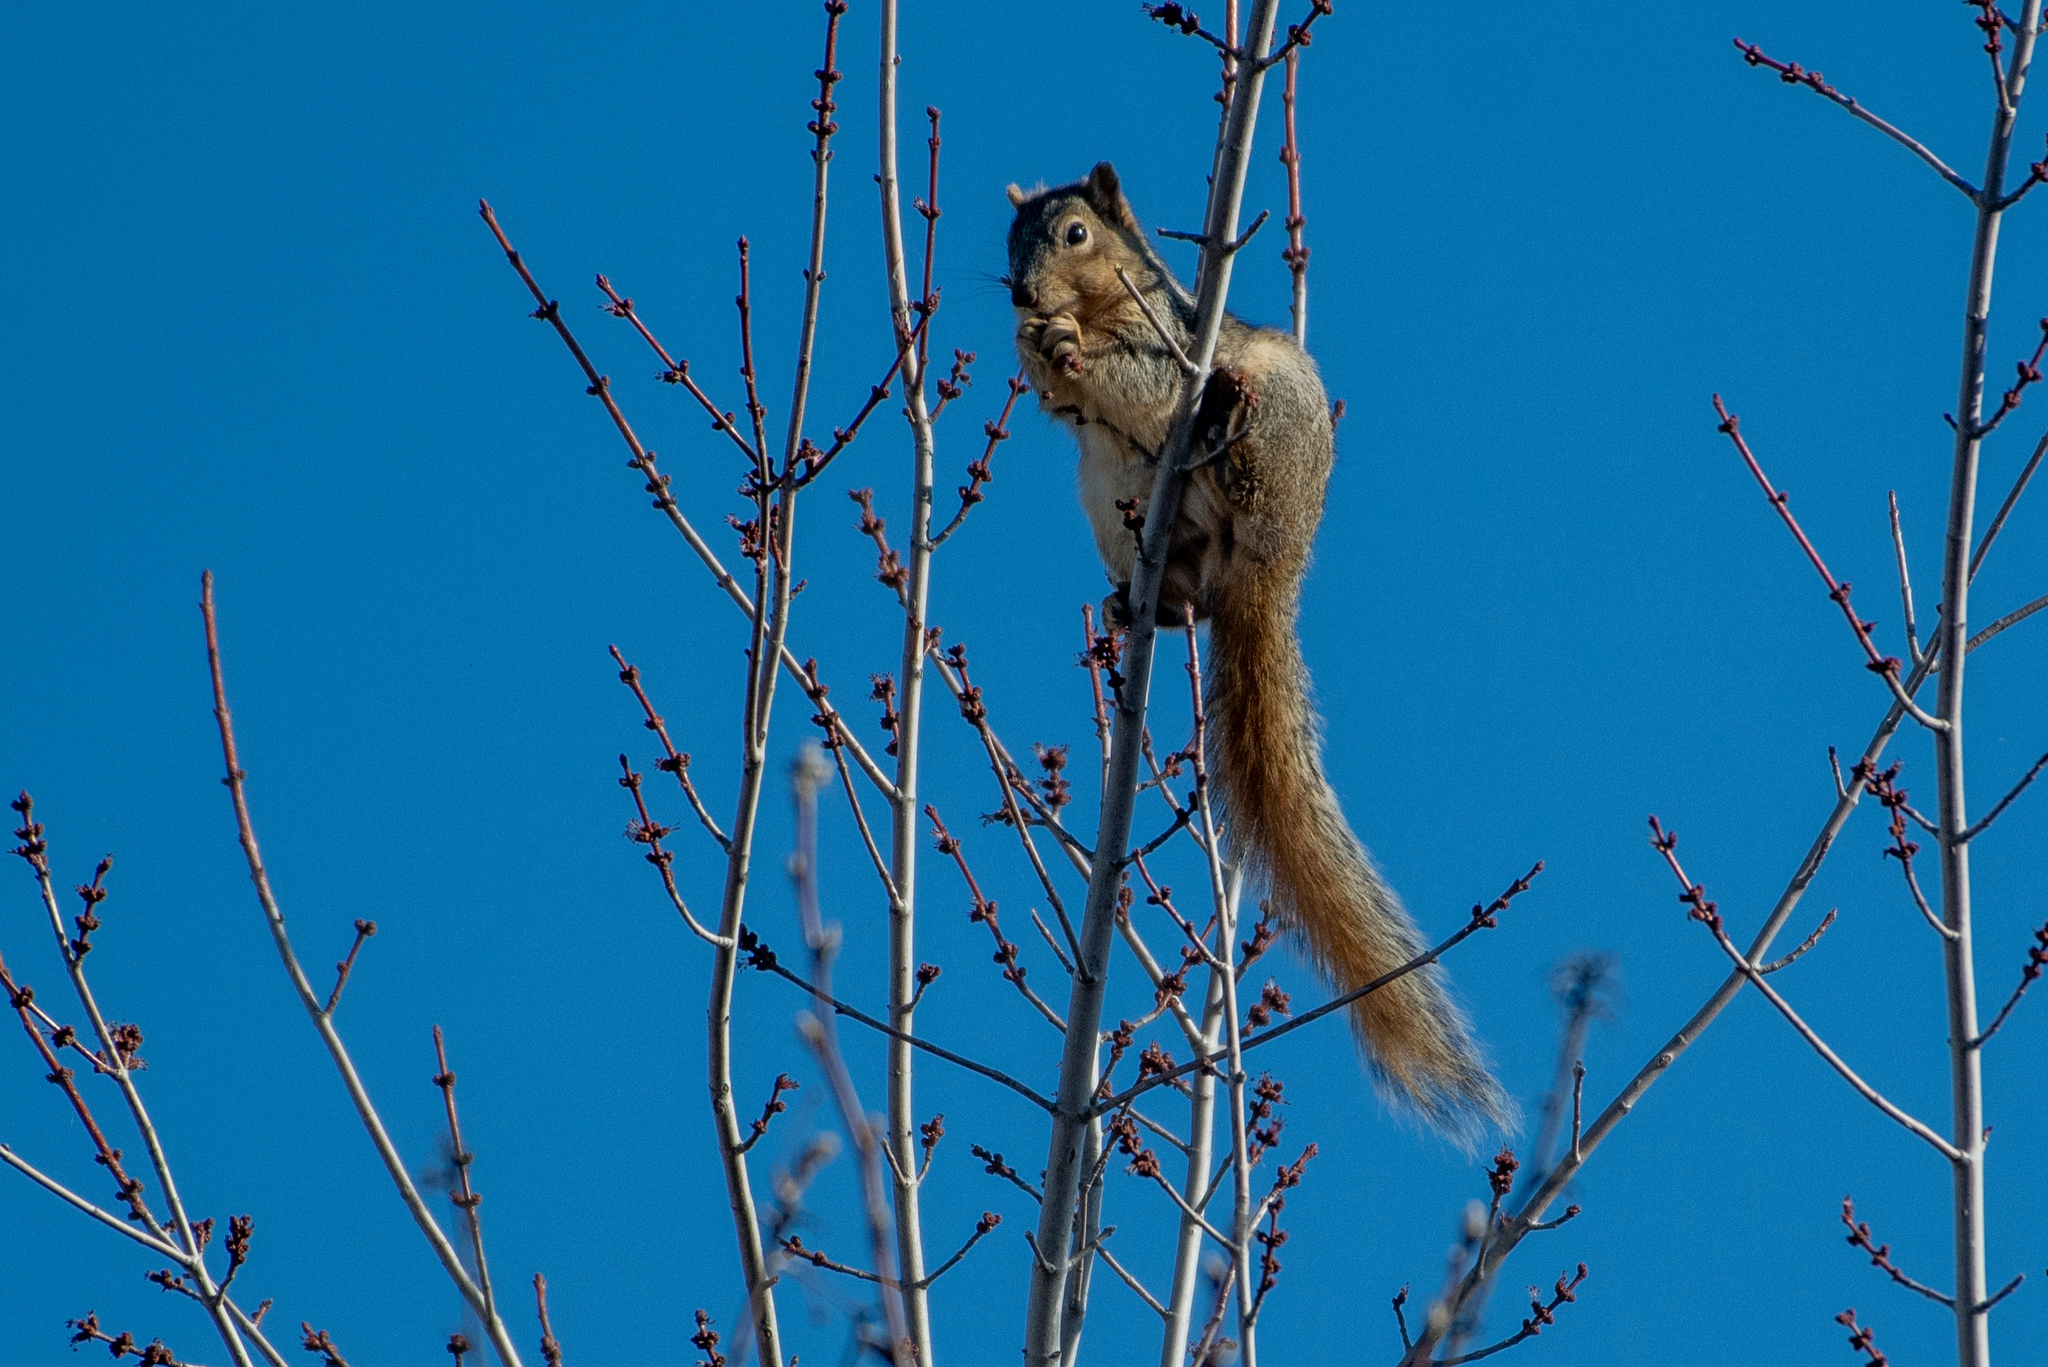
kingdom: Animalia
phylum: Chordata
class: Mammalia
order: Rodentia
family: Sciuridae
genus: Sciurus
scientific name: Sciurus niger
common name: Fox squirrel
